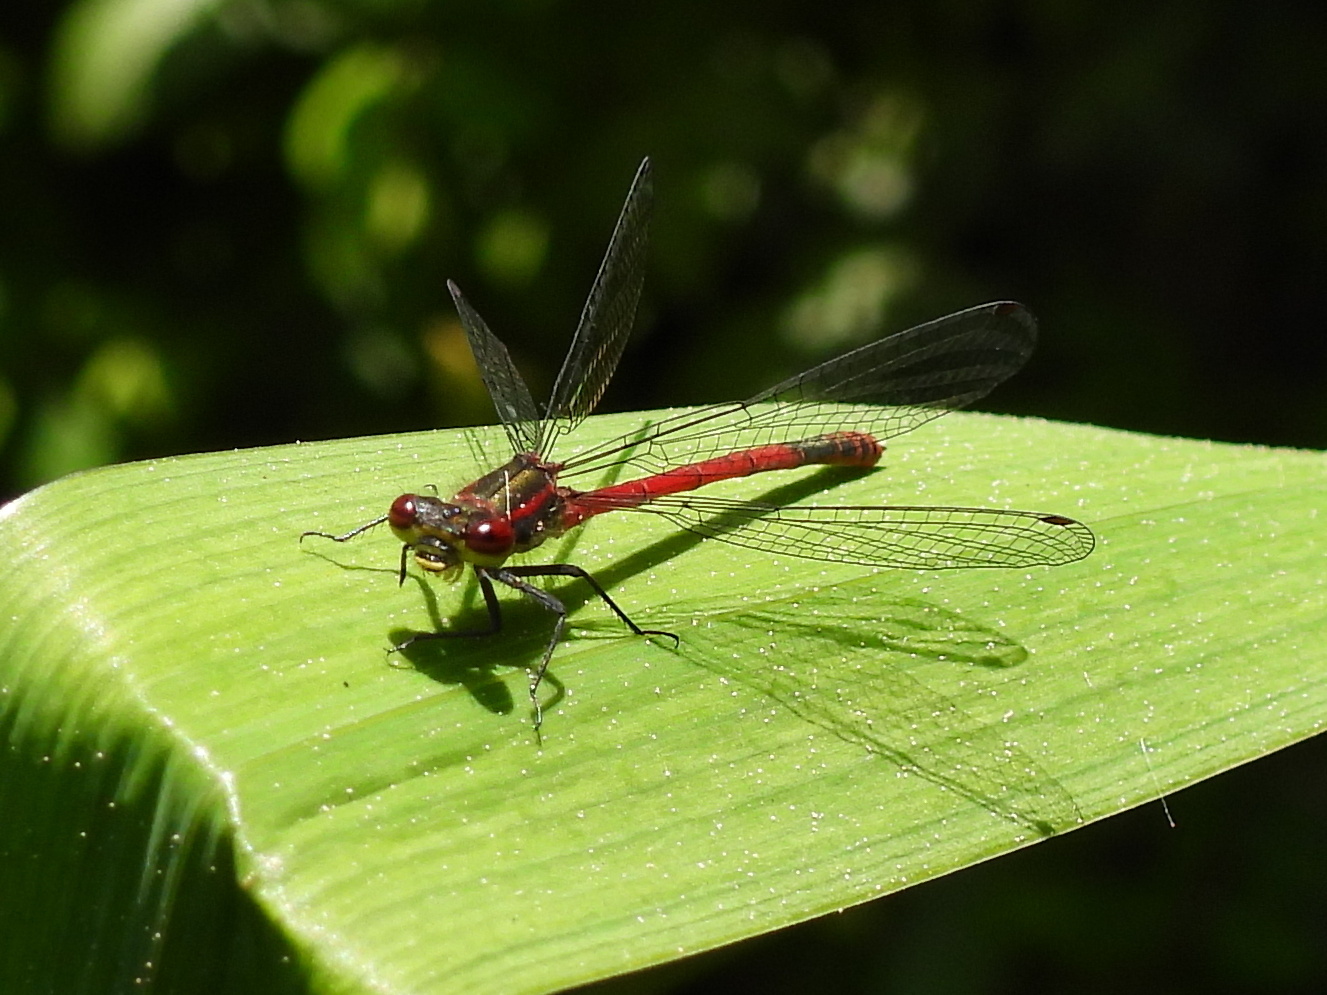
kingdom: Animalia
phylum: Arthropoda
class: Insecta
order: Odonata
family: Coenagrionidae
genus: Pyrrhosoma
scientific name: Pyrrhosoma nymphula
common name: Large red damsel
